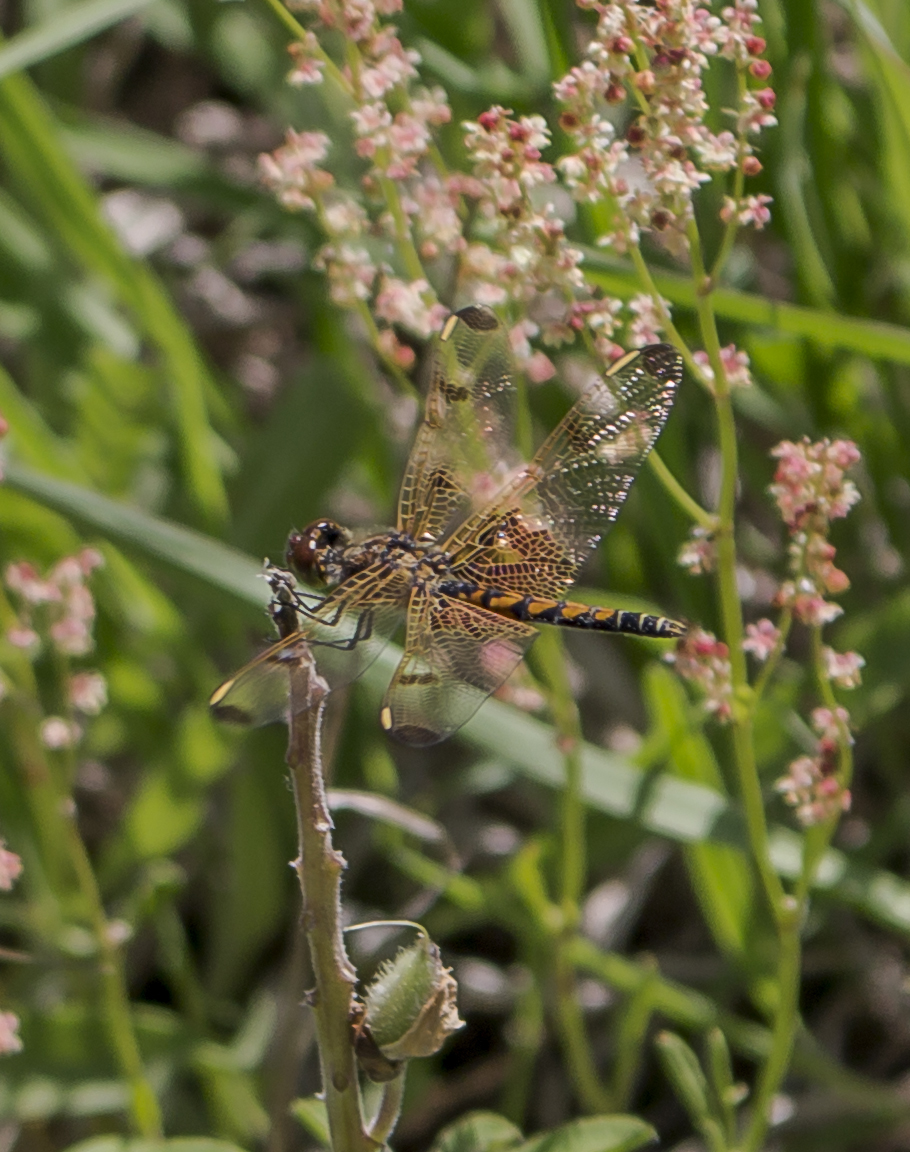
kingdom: Animalia
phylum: Arthropoda
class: Insecta
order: Odonata
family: Libellulidae
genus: Celithemis
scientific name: Celithemis elisa
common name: Calico pennant
